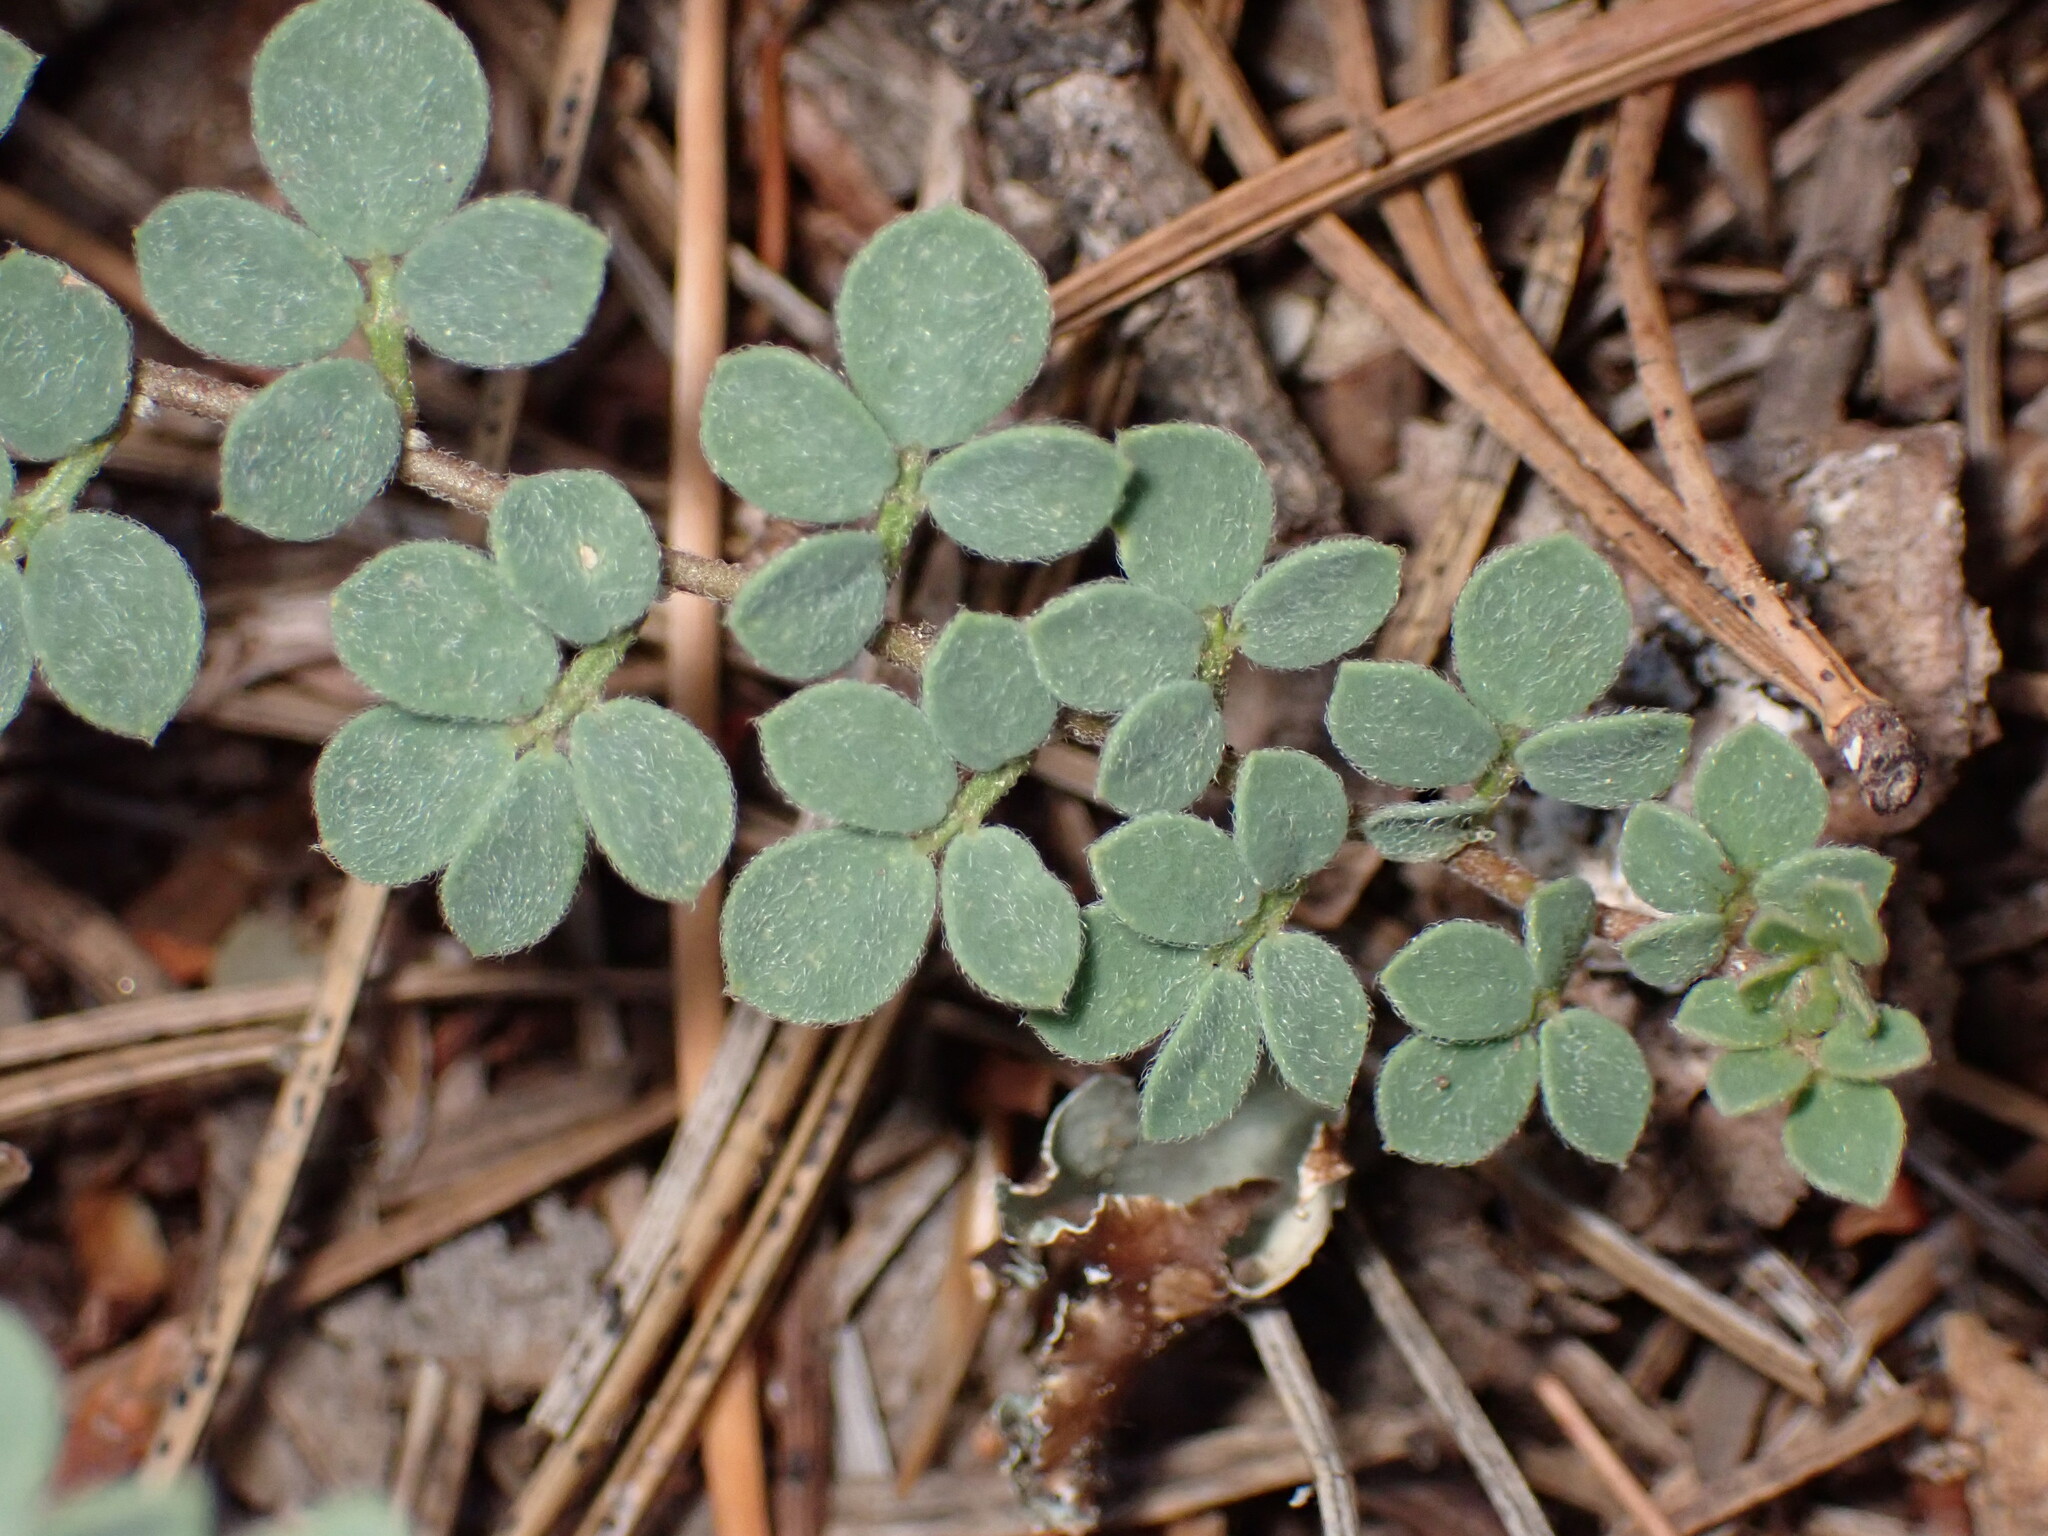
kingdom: Plantae
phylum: Tracheophyta
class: Magnoliopsida
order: Fabales
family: Fabaceae
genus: Acmispon
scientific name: Acmispon decumbens
